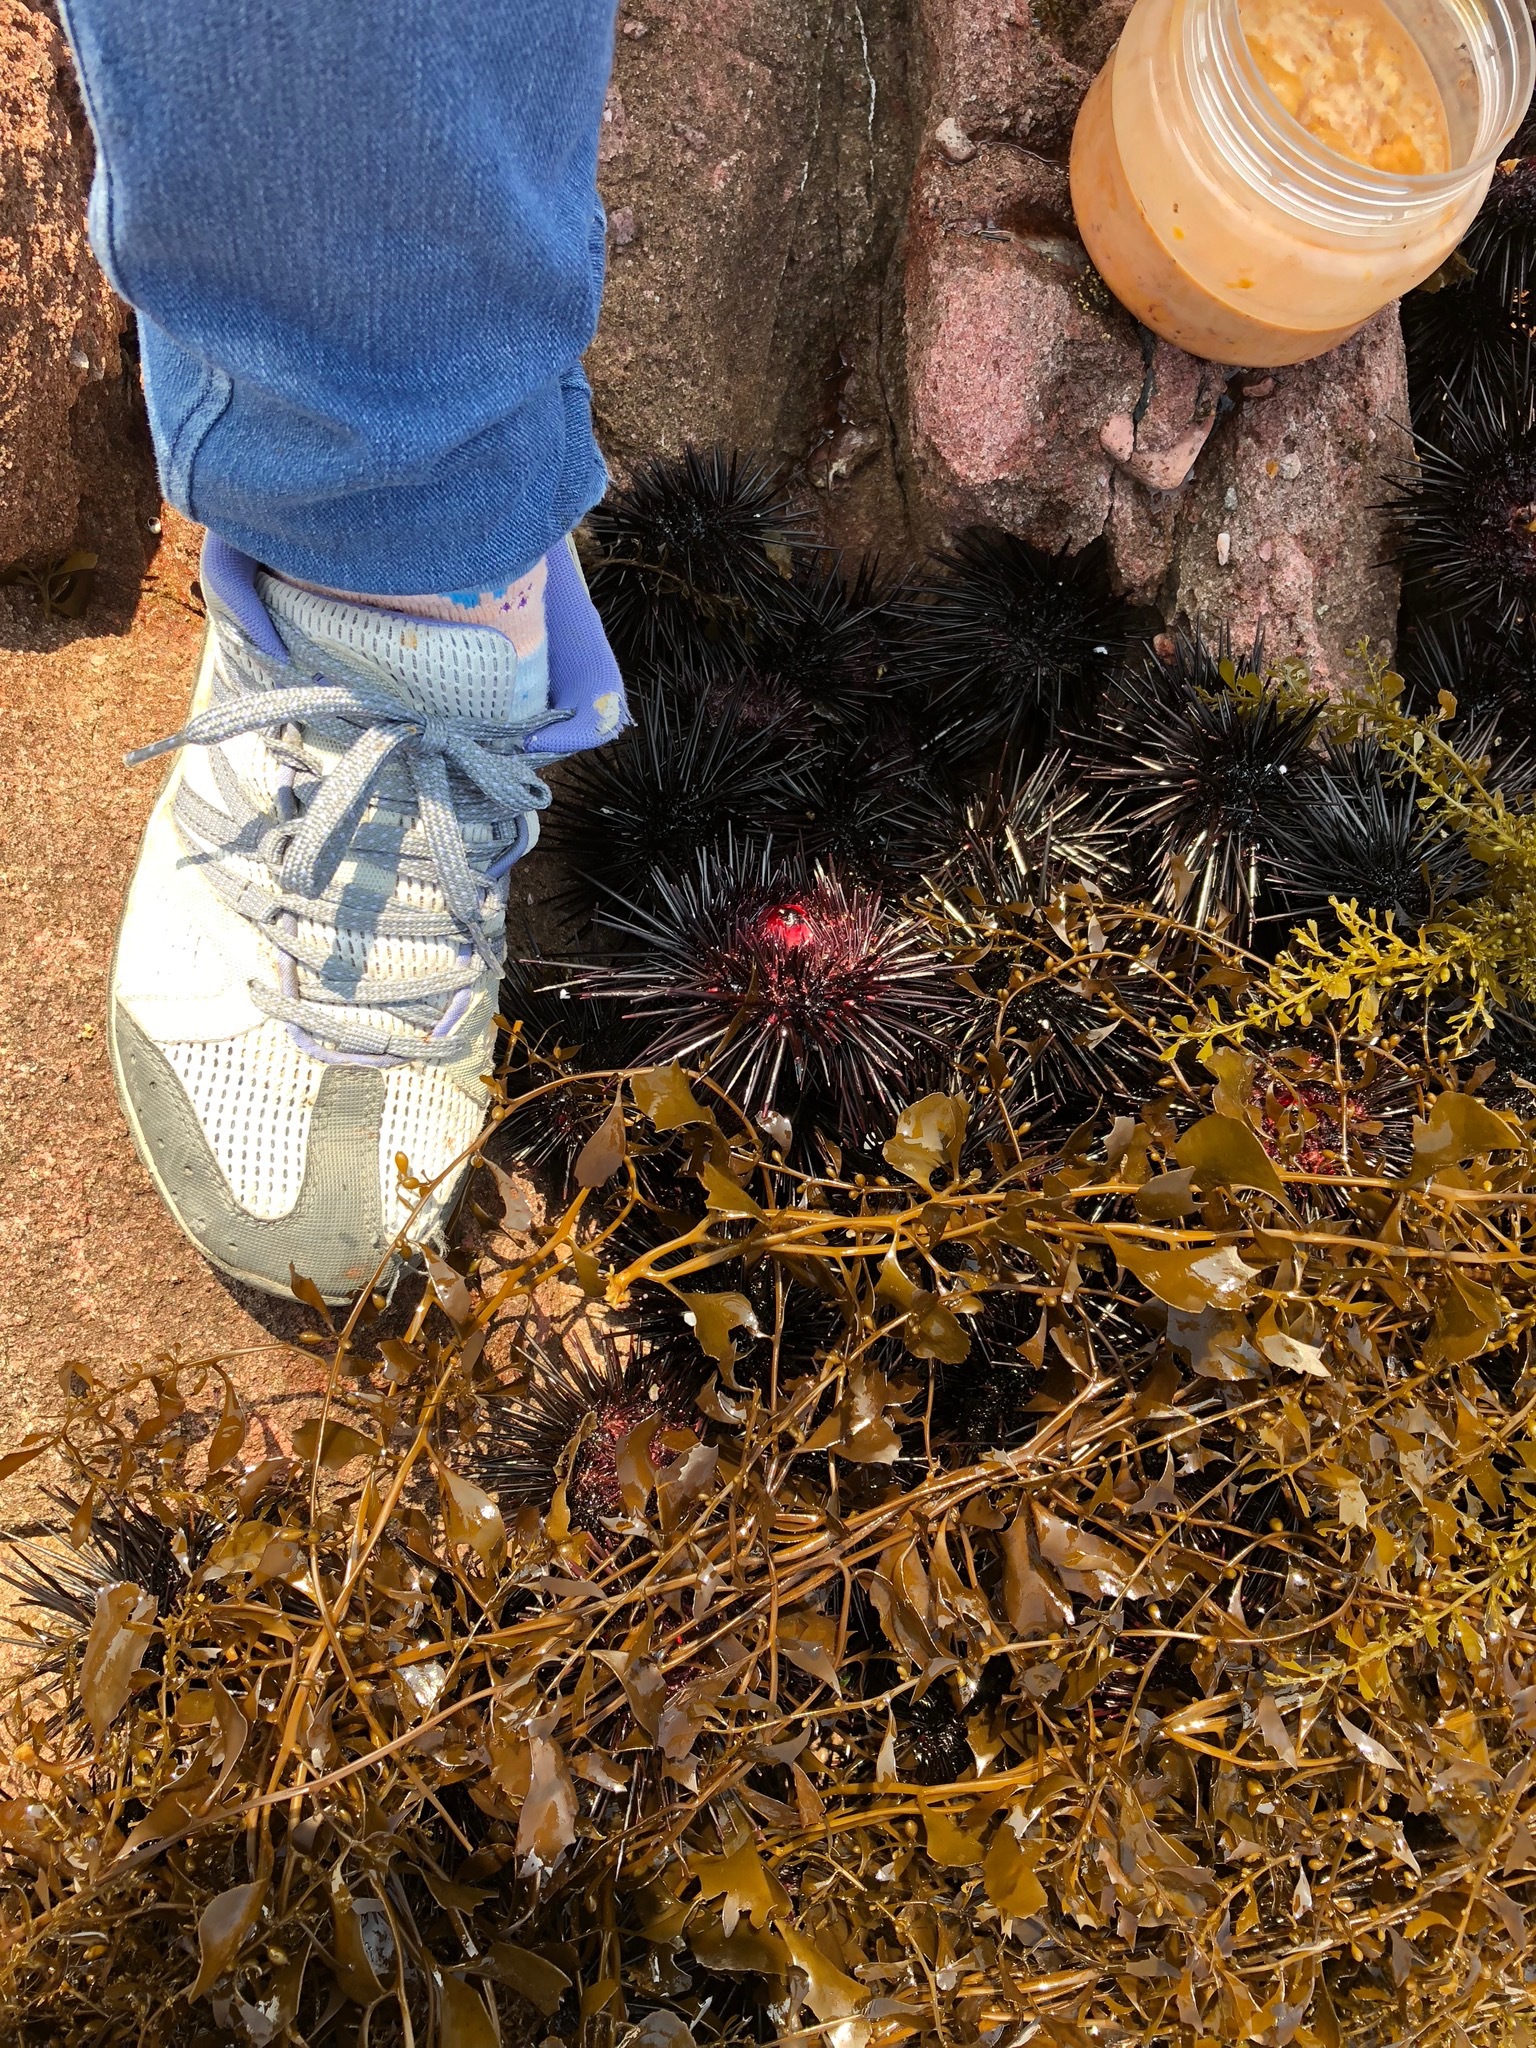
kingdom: Animalia
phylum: Echinodermata
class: Echinoidea
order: Camarodonta
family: Echinometridae
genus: Heliocidaris
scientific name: Heliocidaris crassispina
